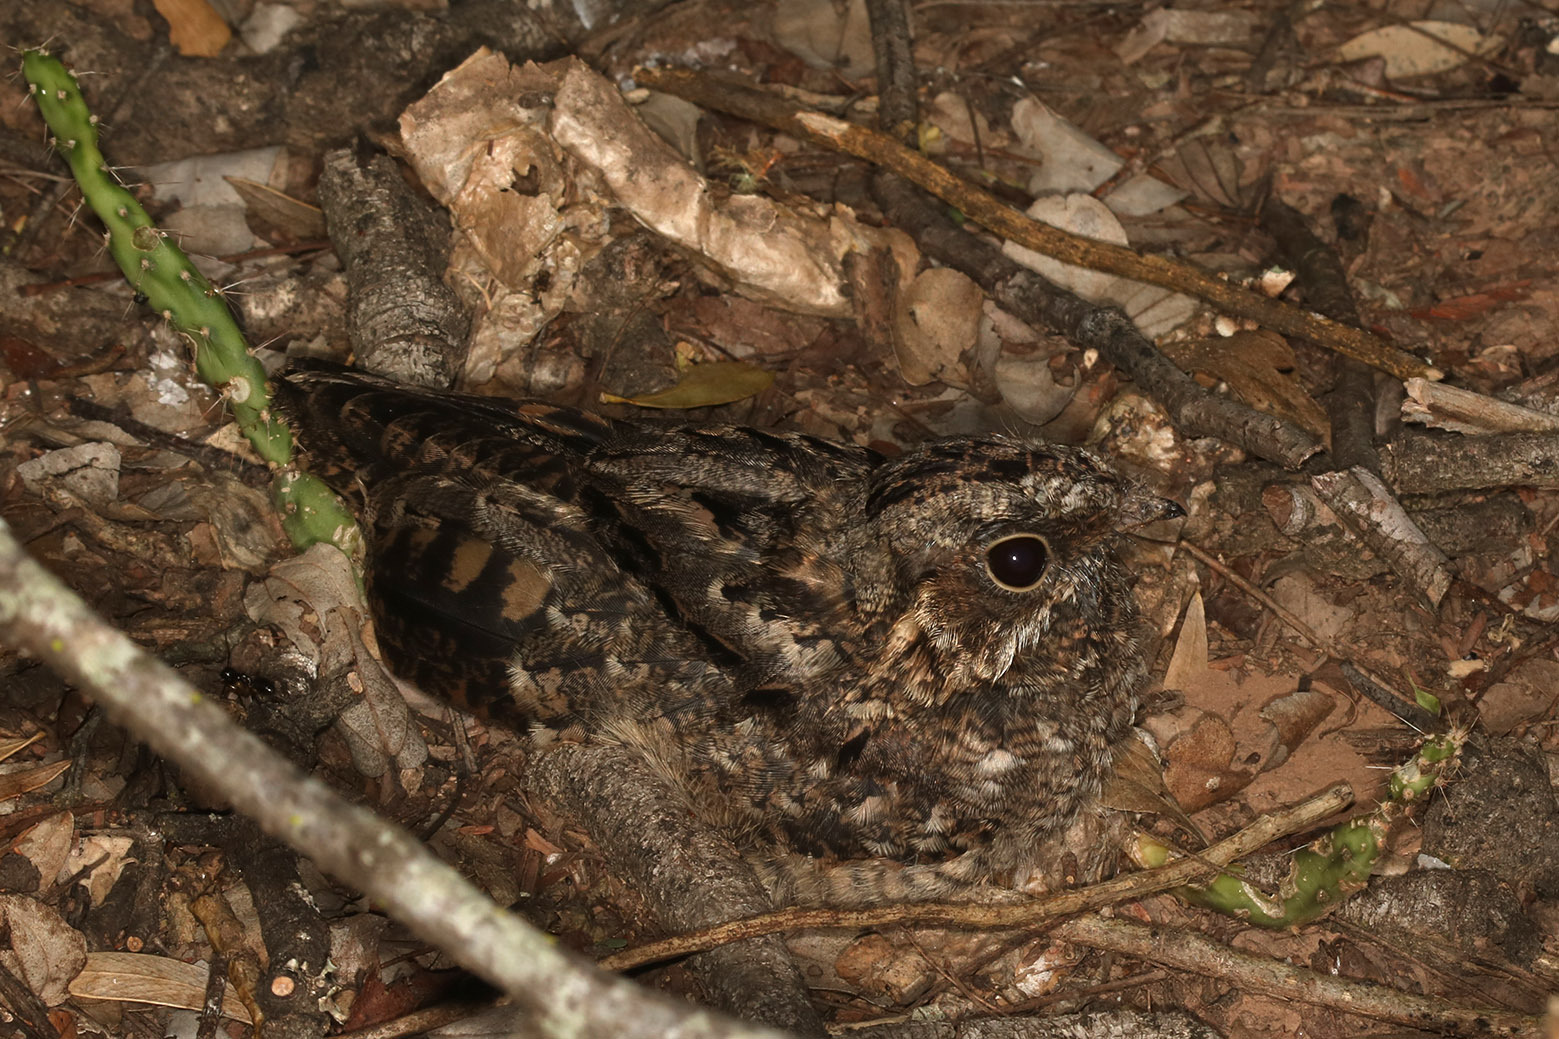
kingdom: Animalia
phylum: Chordata
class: Aves
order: Caprimulgiformes
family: Caprimulgidae
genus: Setopagis
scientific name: Setopagis parvula
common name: Little nightjar
